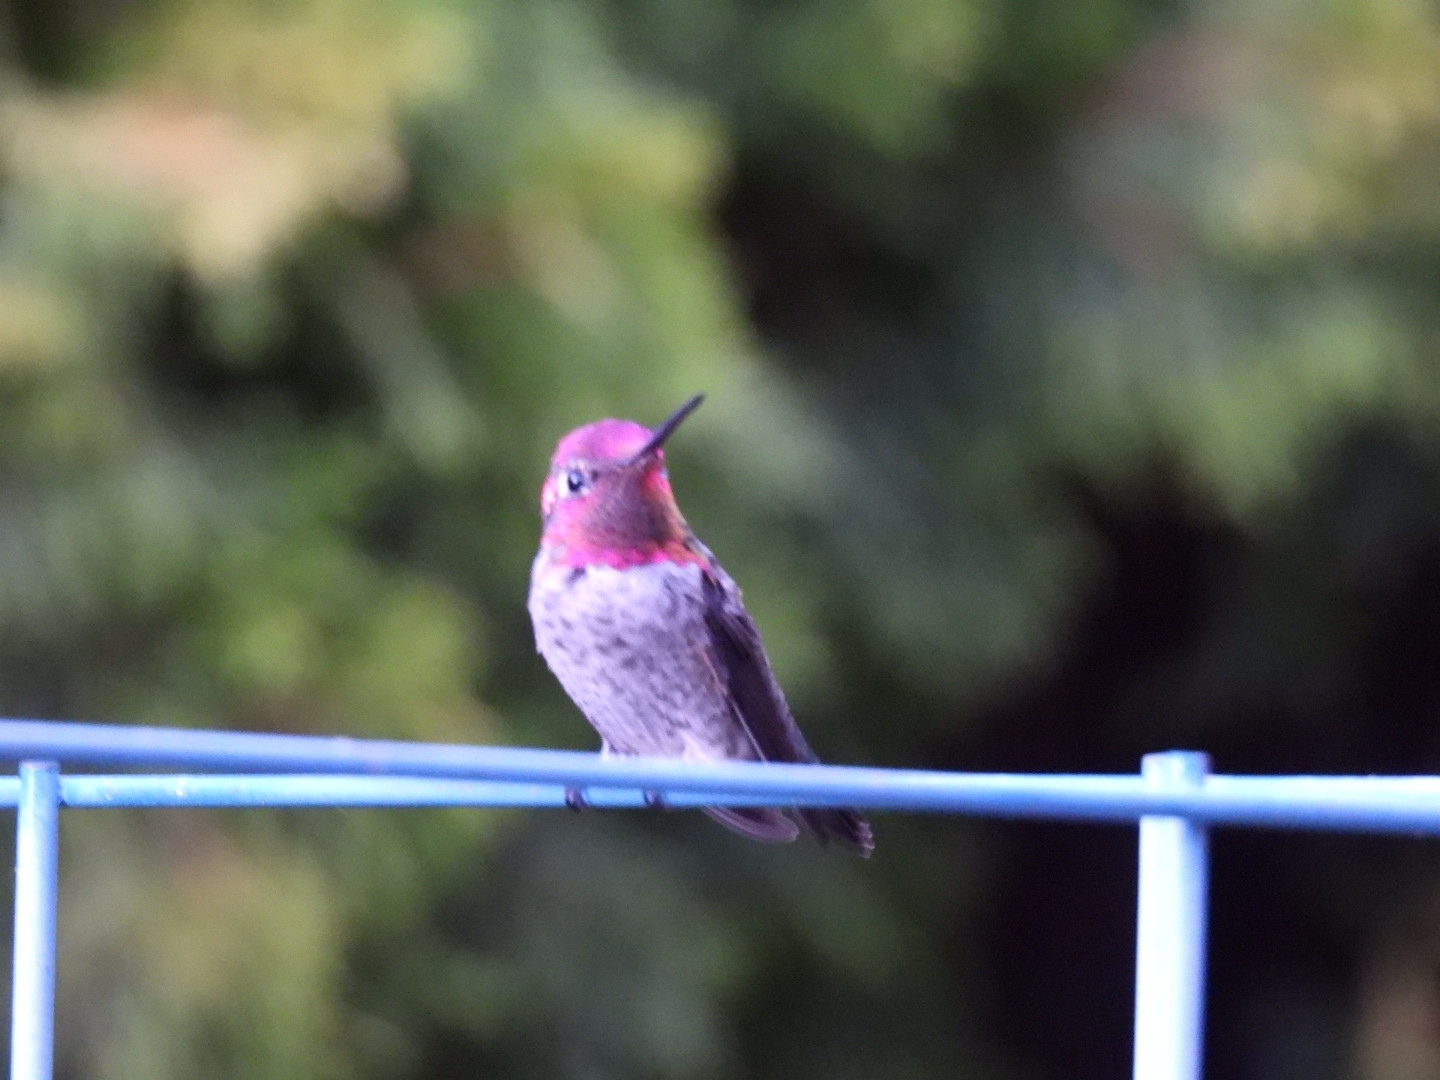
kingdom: Animalia
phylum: Chordata
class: Aves
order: Apodiformes
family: Trochilidae
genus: Calypte
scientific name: Calypte anna
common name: Anna's hummingbird
